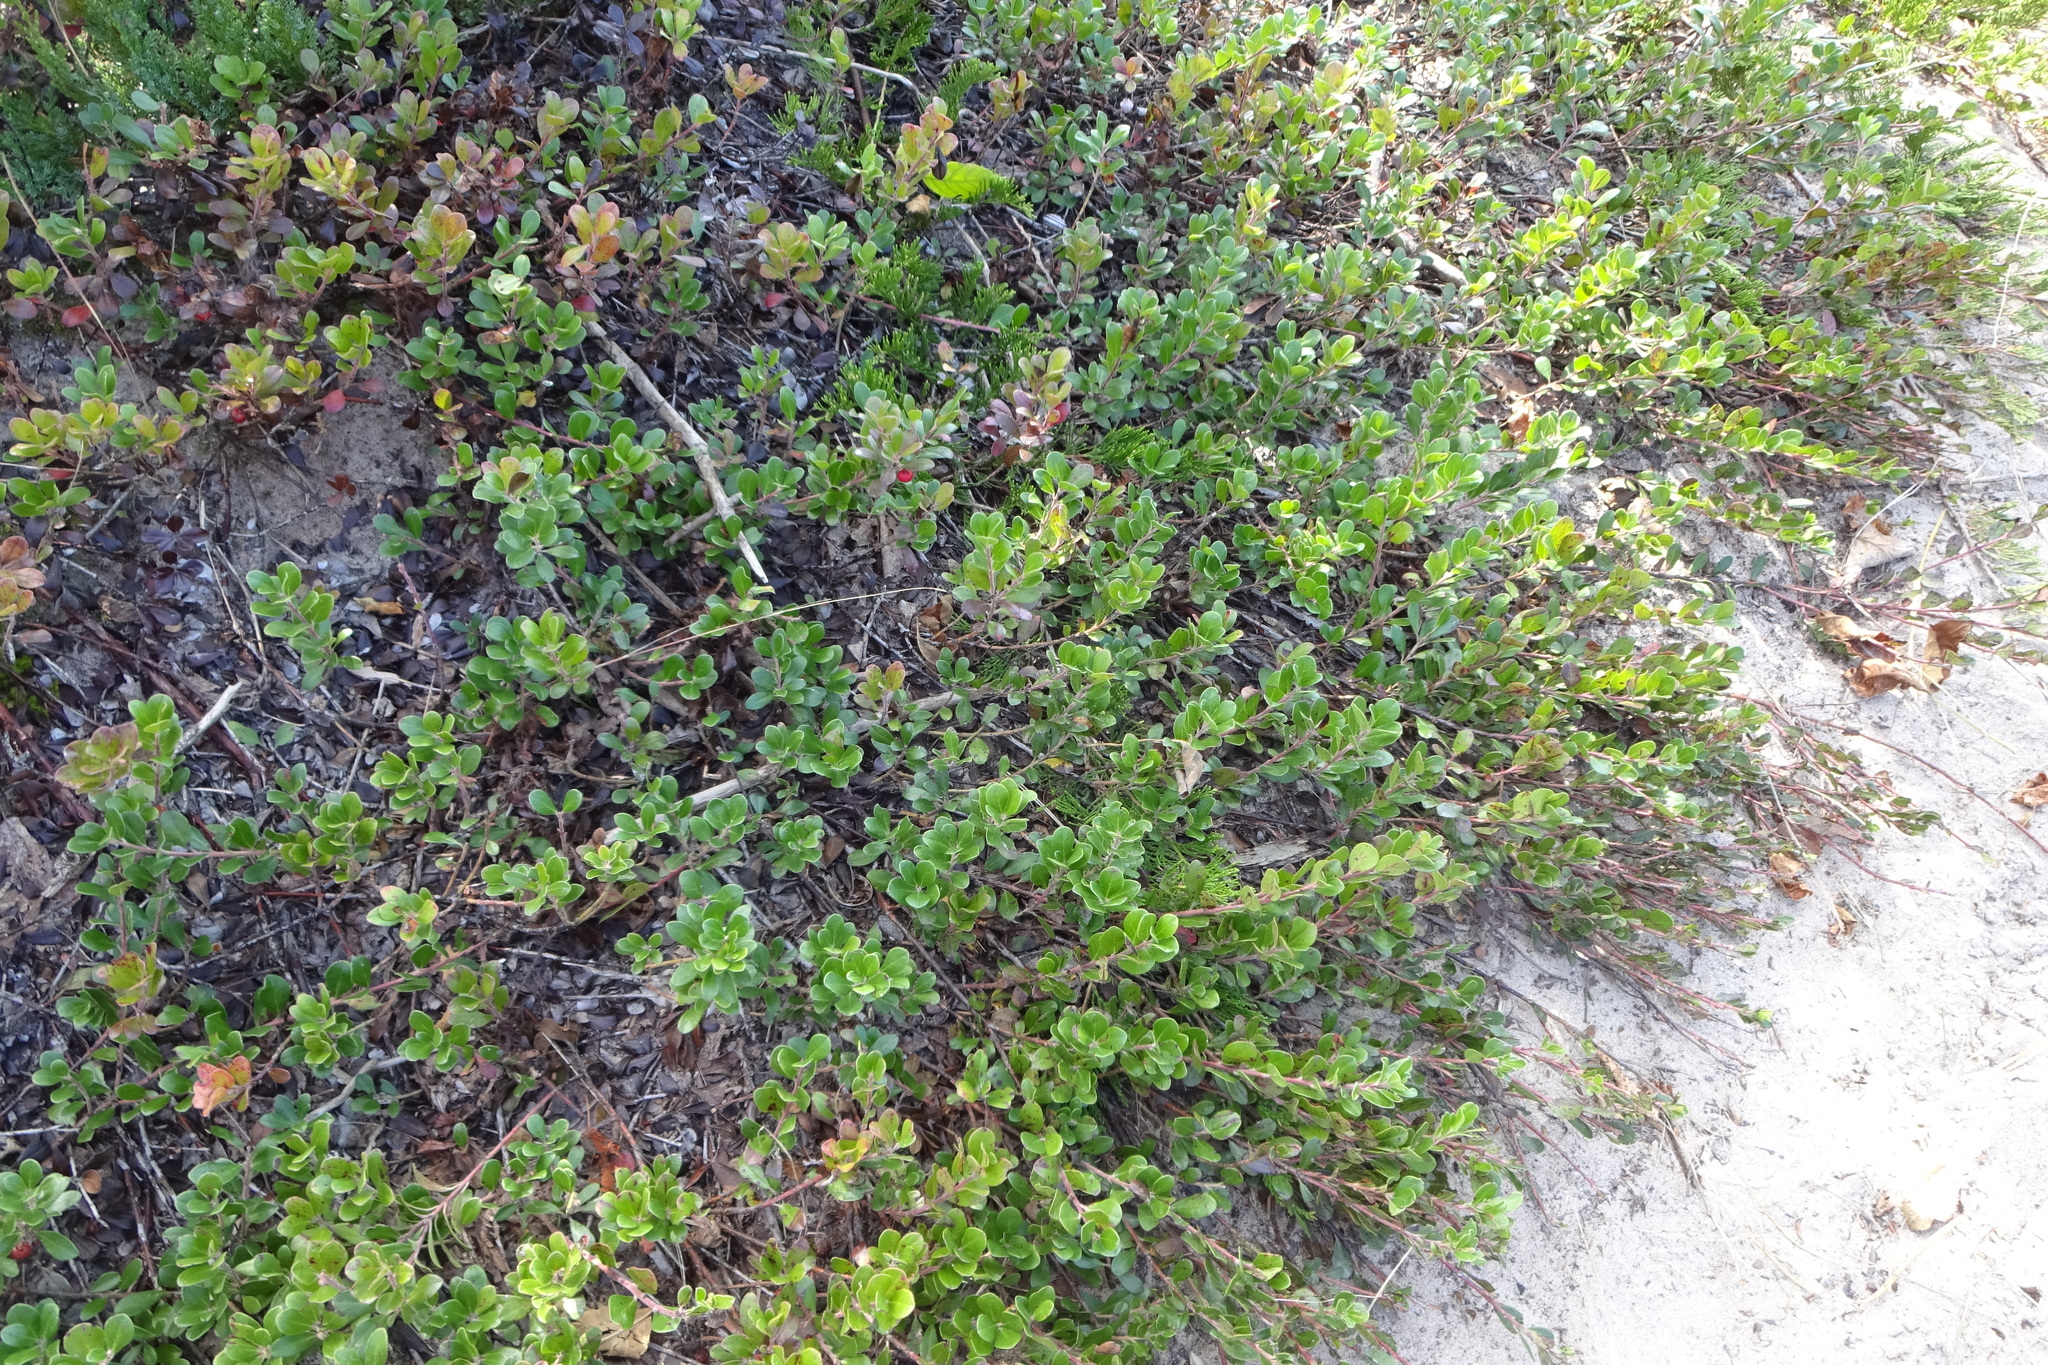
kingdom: Plantae
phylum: Tracheophyta
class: Magnoliopsida
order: Ericales
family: Ericaceae
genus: Arctostaphylos
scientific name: Arctostaphylos uva-ursi
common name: Bearberry
